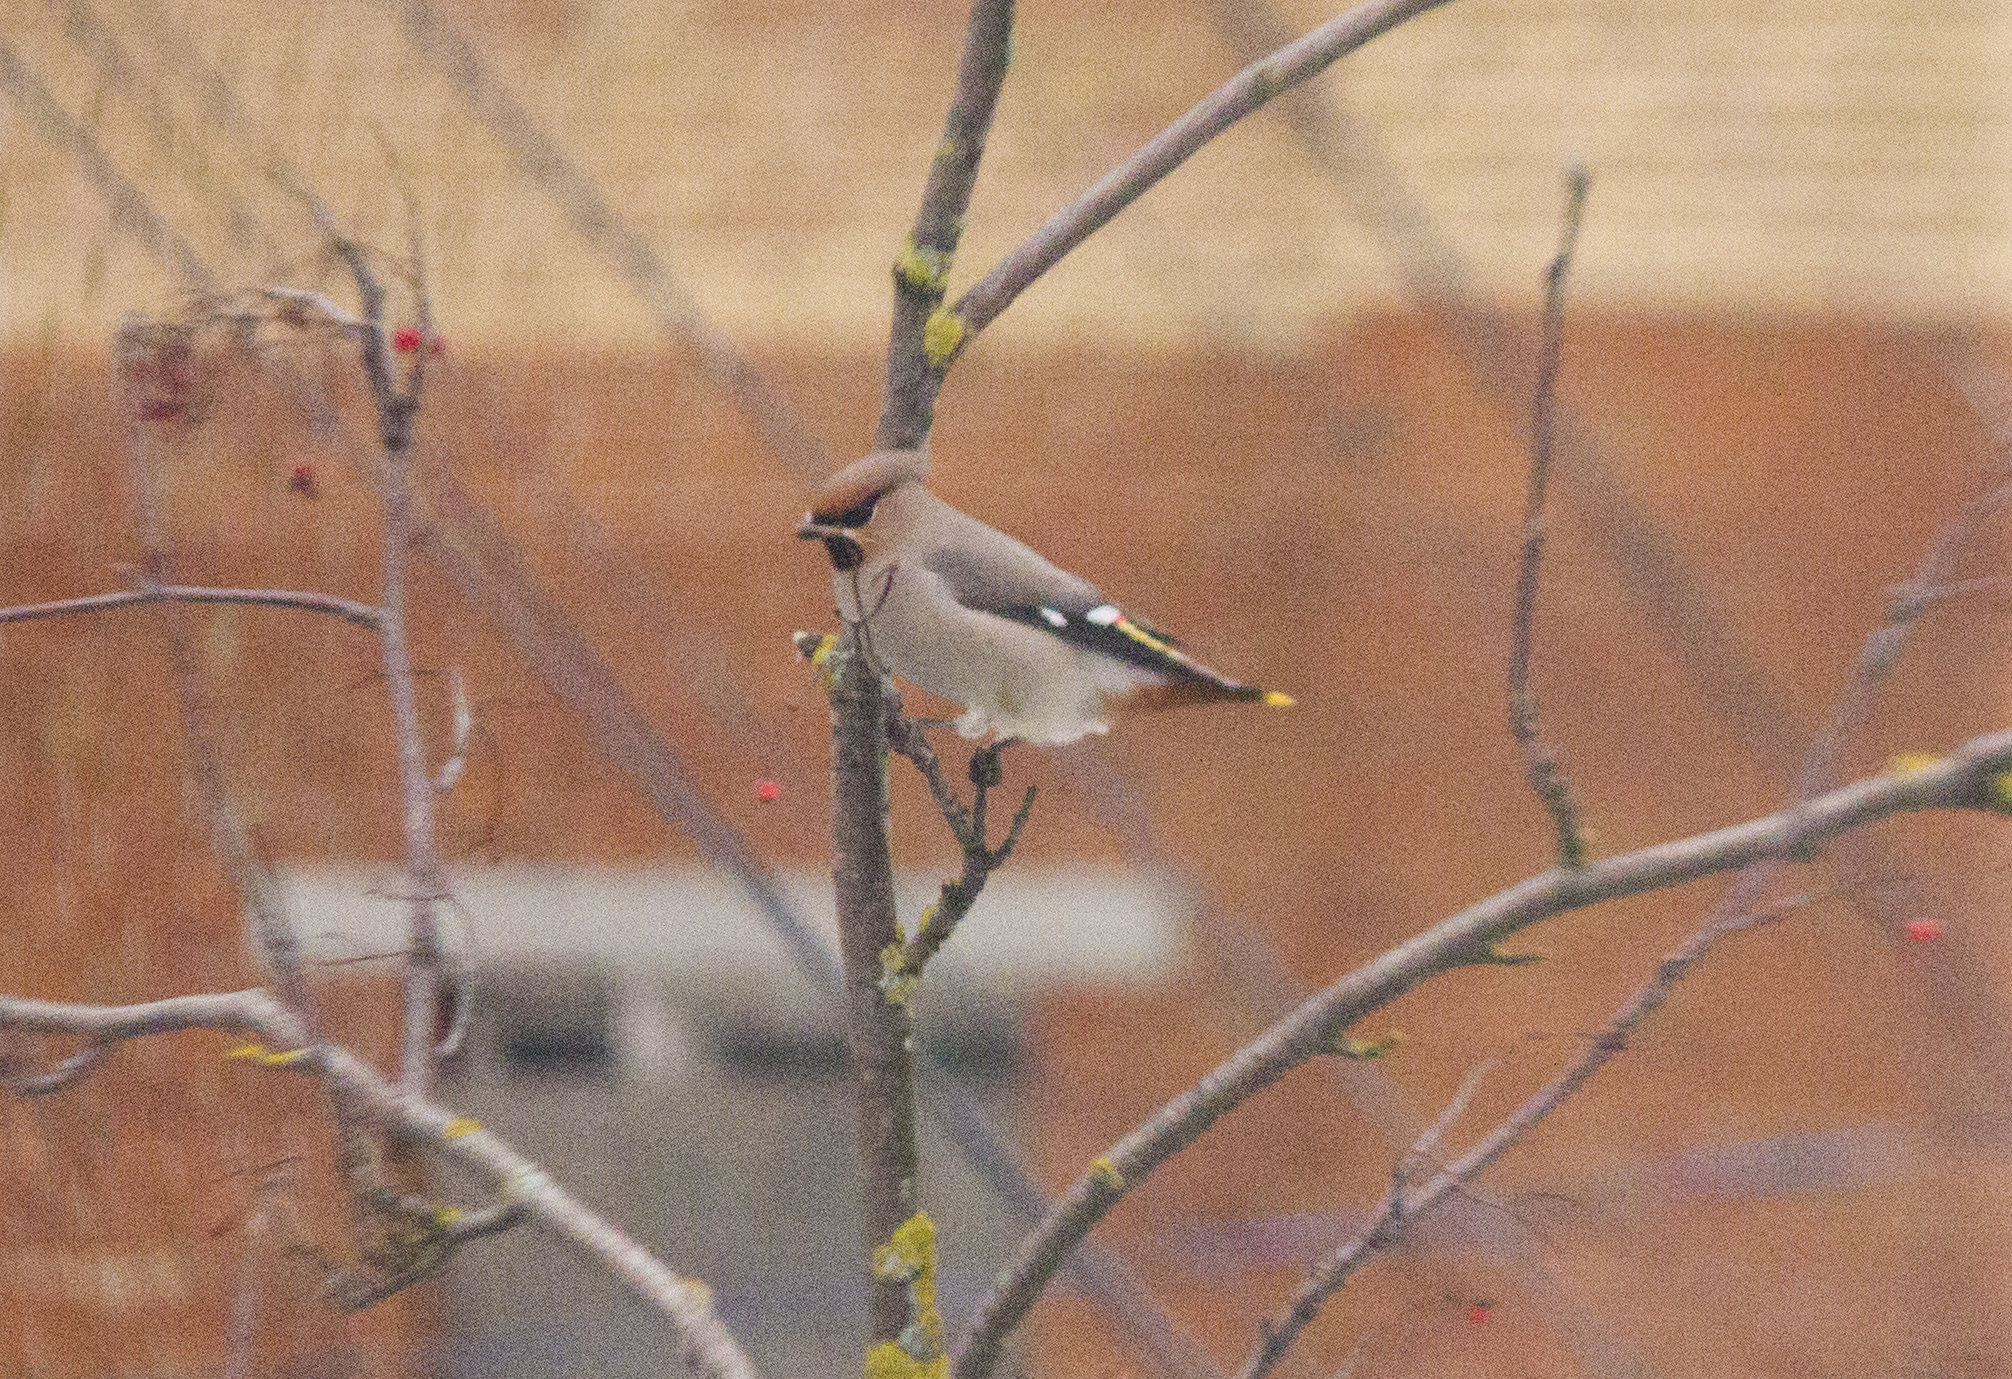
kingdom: Animalia
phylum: Chordata
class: Aves
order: Passeriformes
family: Bombycillidae
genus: Bombycilla
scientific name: Bombycilla garrulus
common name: Bohemian waxwing
